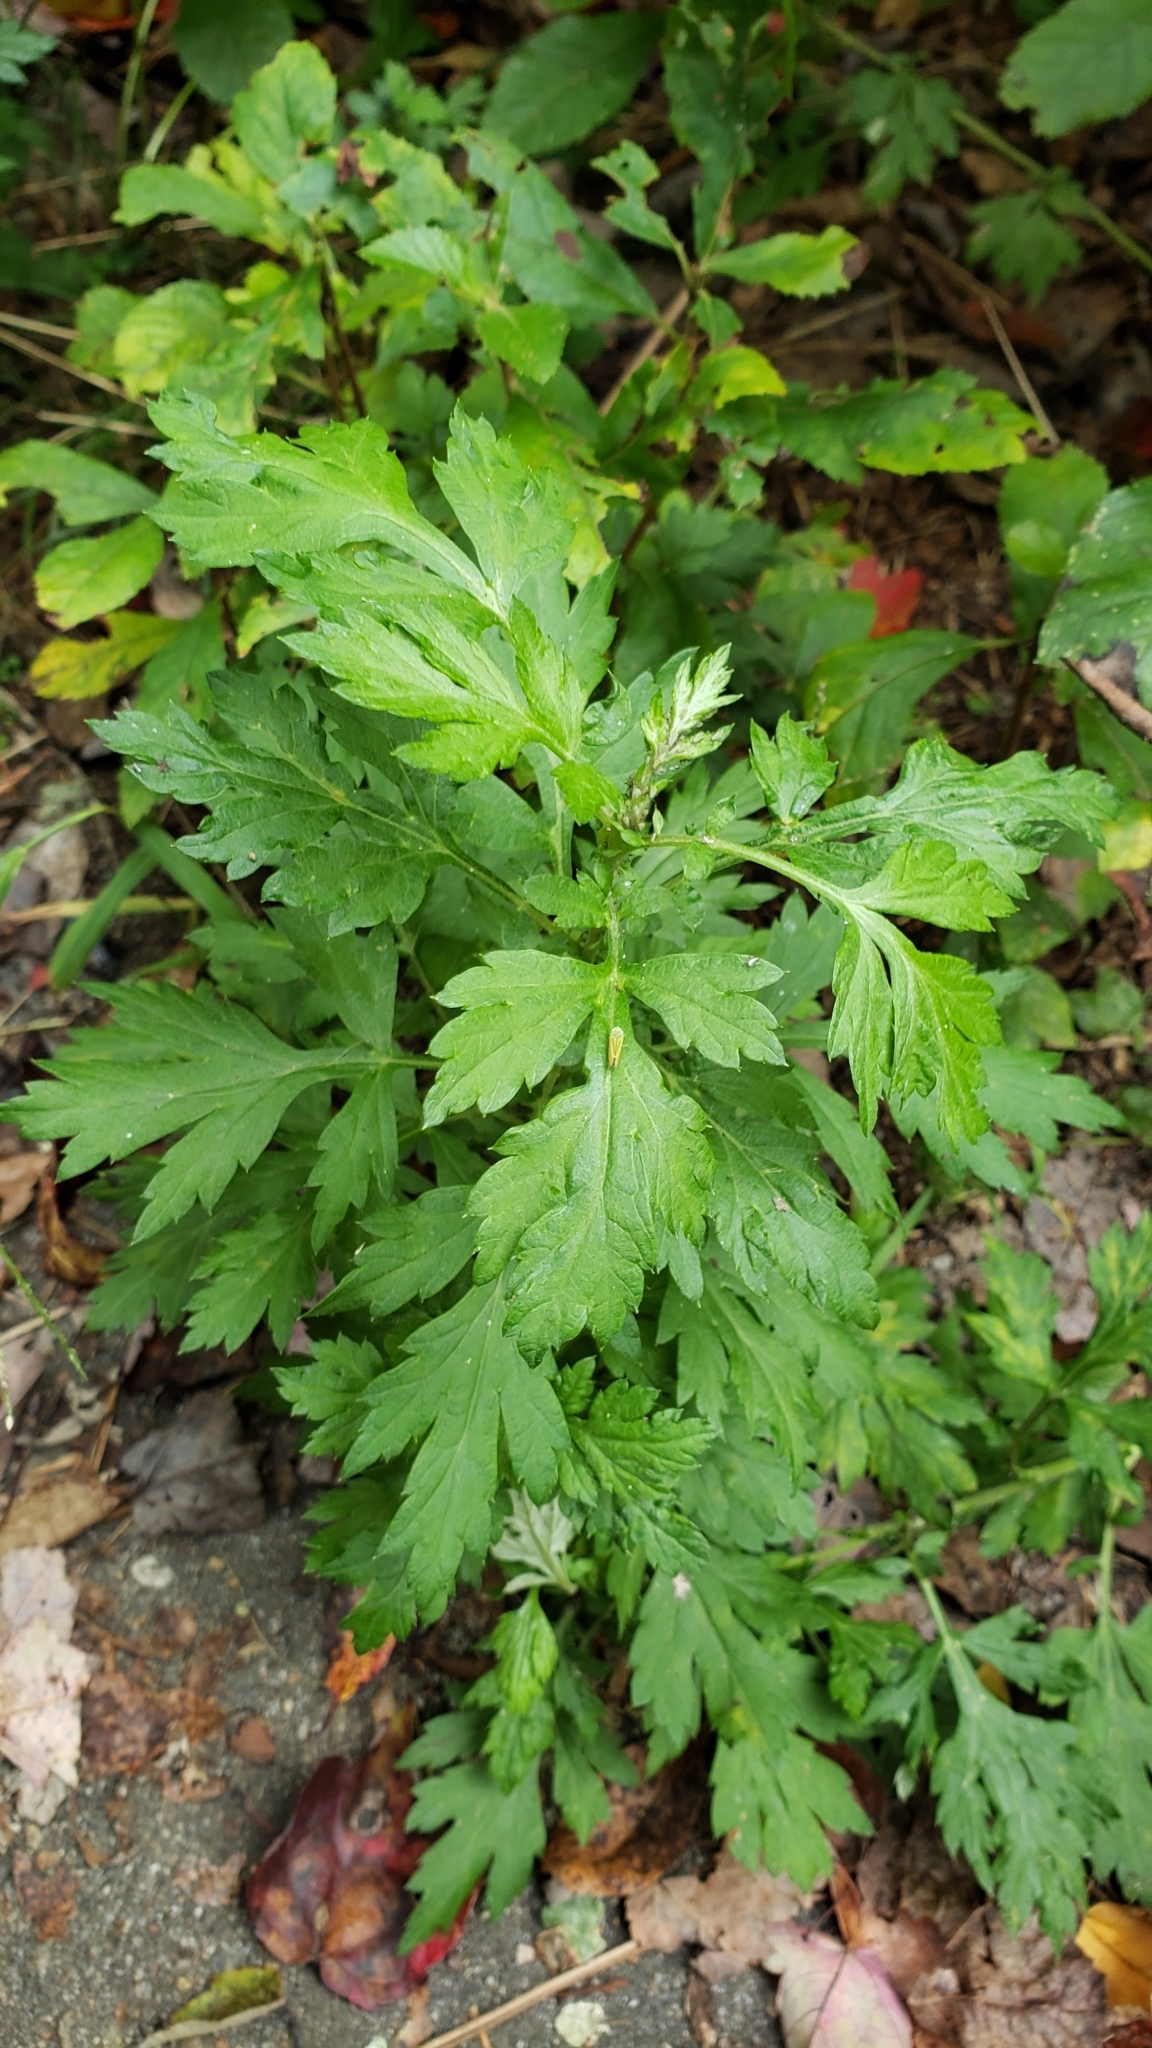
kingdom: Plantae
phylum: Tracheophyta
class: Magnoliopsida
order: Asterales
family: Asteraceae
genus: Artemisia
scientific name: Artemisia vulgaris
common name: Mugwort
